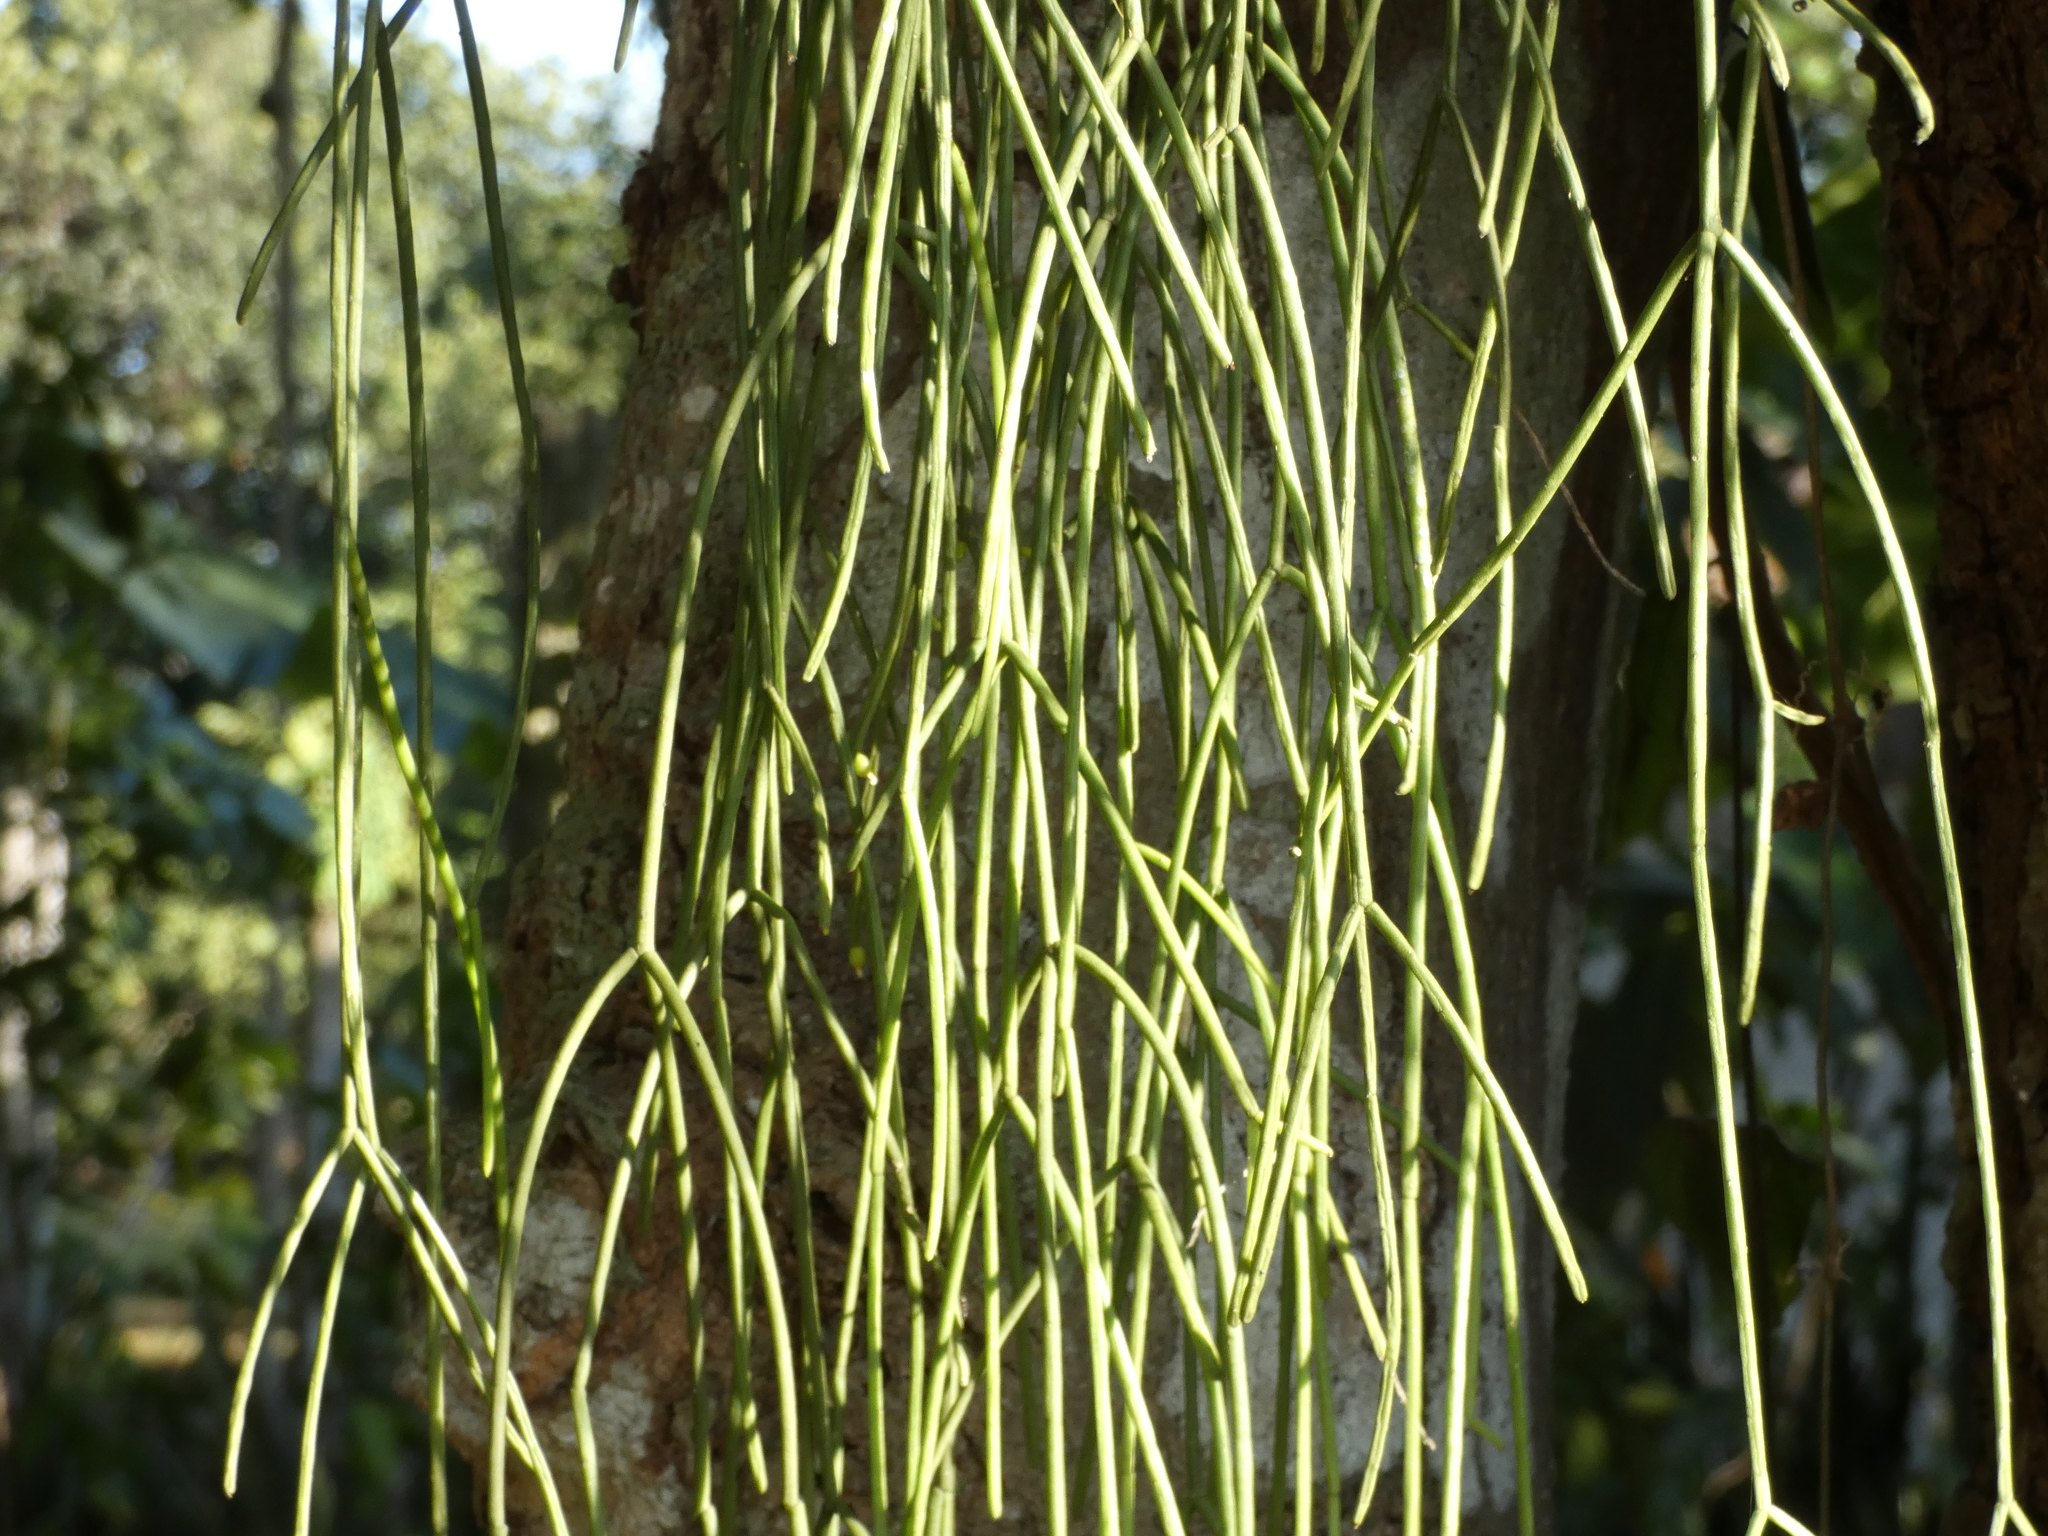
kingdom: Plantae
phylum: Tracheophyta
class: Magnoliopsida
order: Caryophyllales
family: Cactaceae
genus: Rhipsalis
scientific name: Rhipsalis baccifera
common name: Mistletoe cactus
